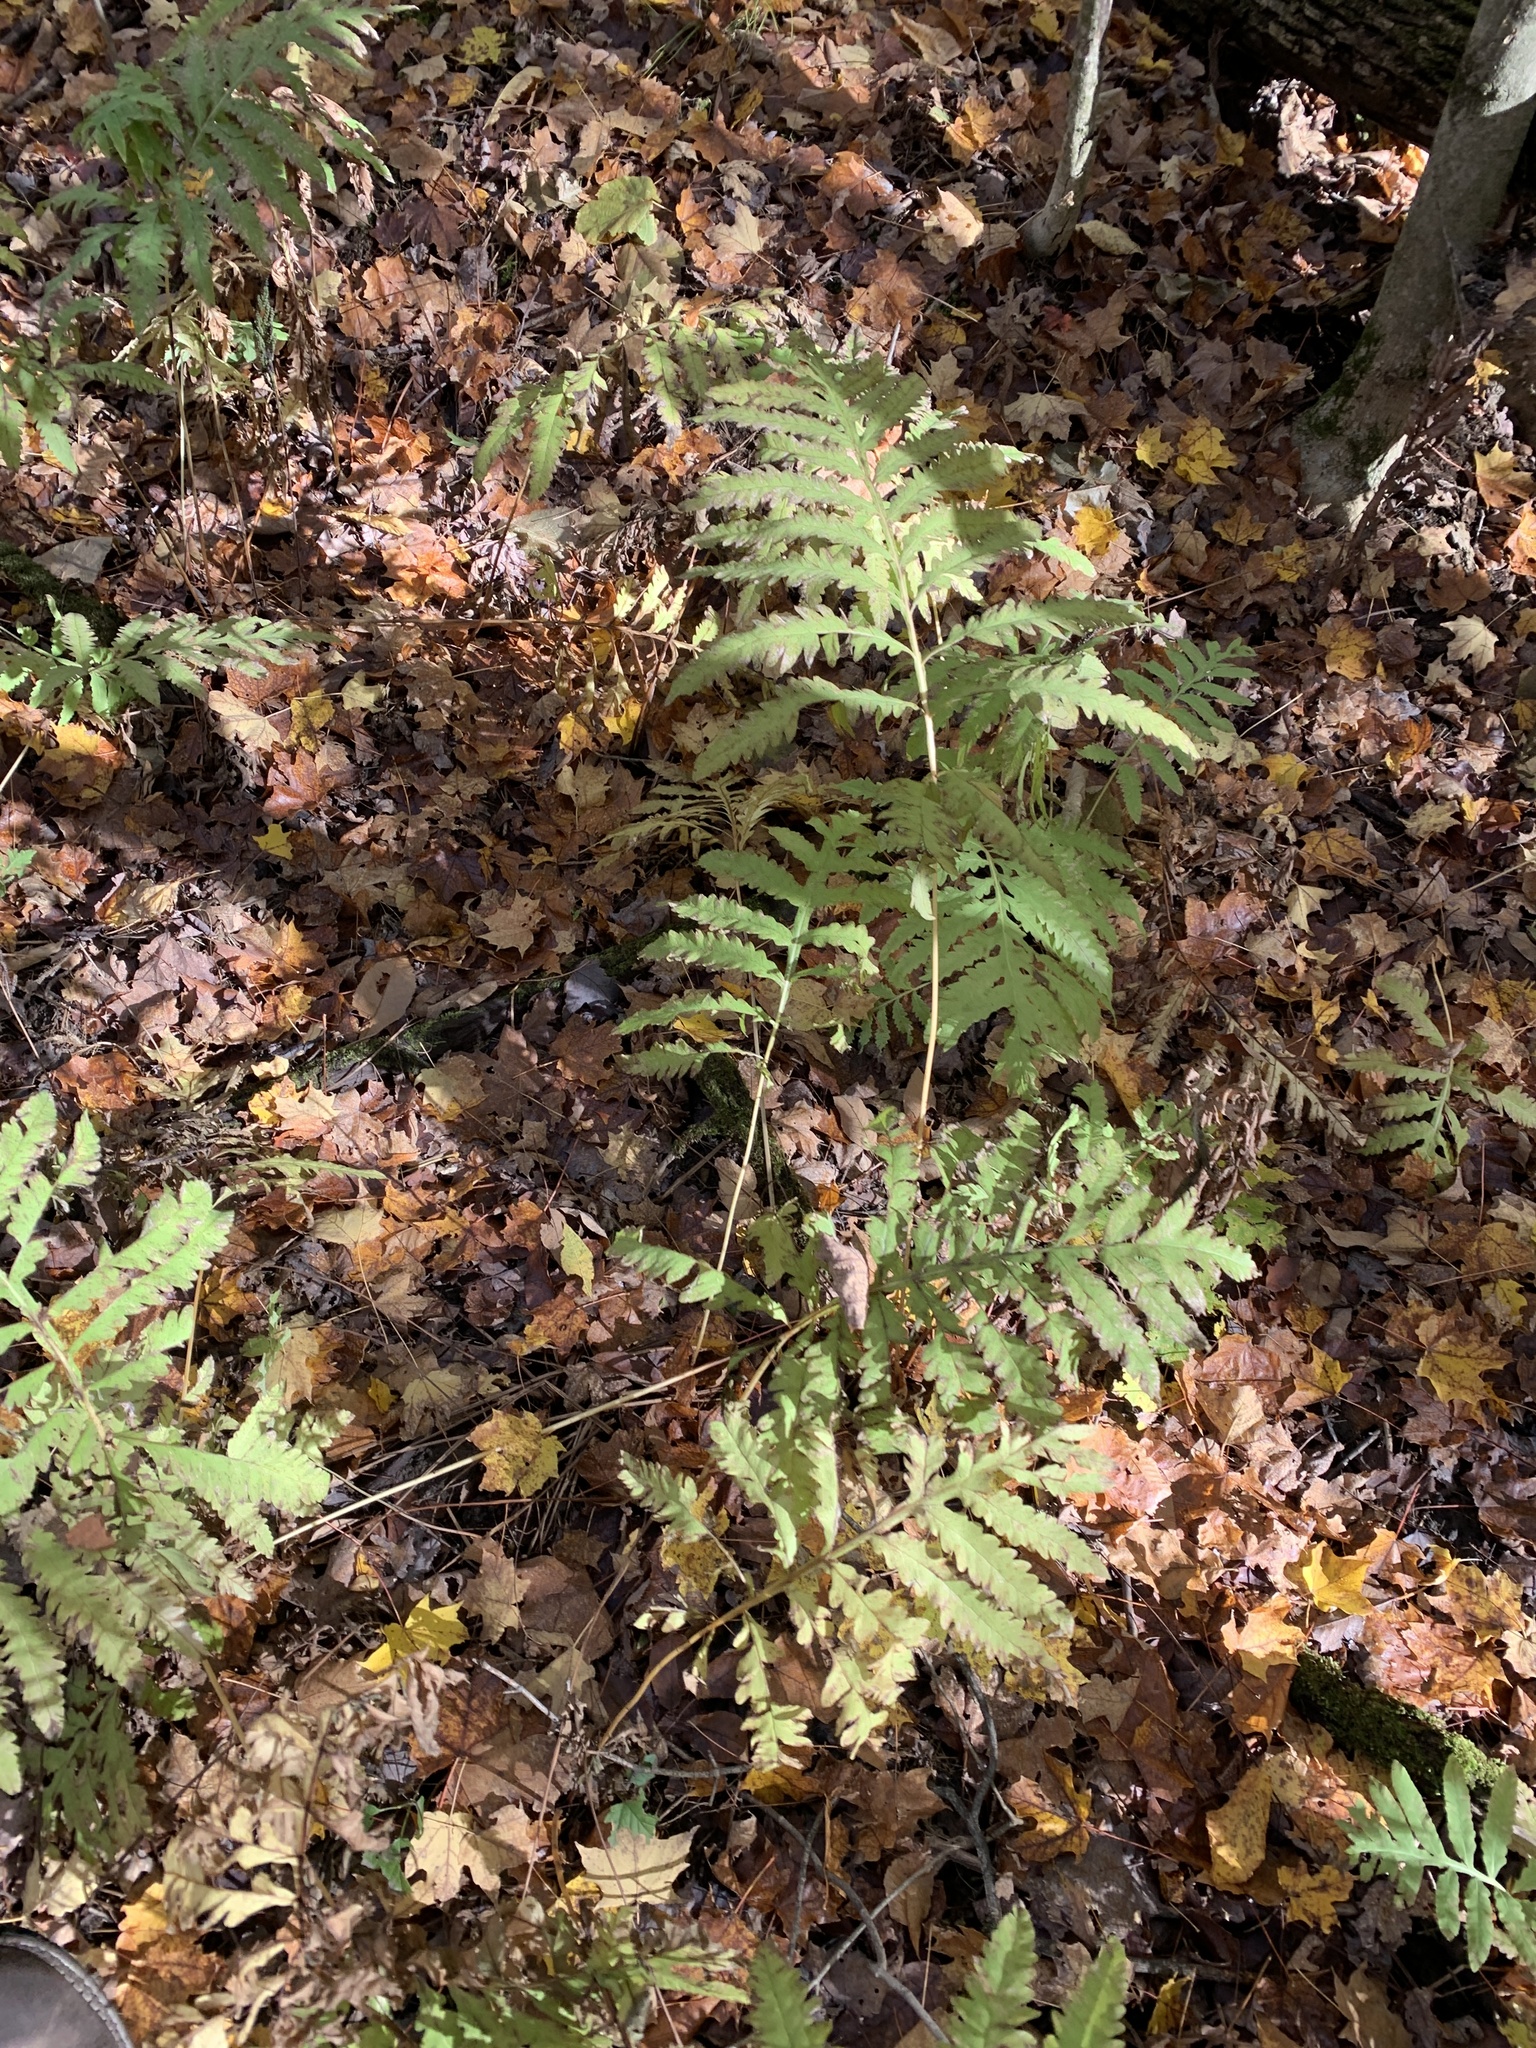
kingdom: Plantae
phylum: Tracheophyta
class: Polypodiopsida
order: Polypodiales
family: Onocleaceae
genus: Onoclea
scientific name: Onoclea sensibilis
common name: Sensitive fern
